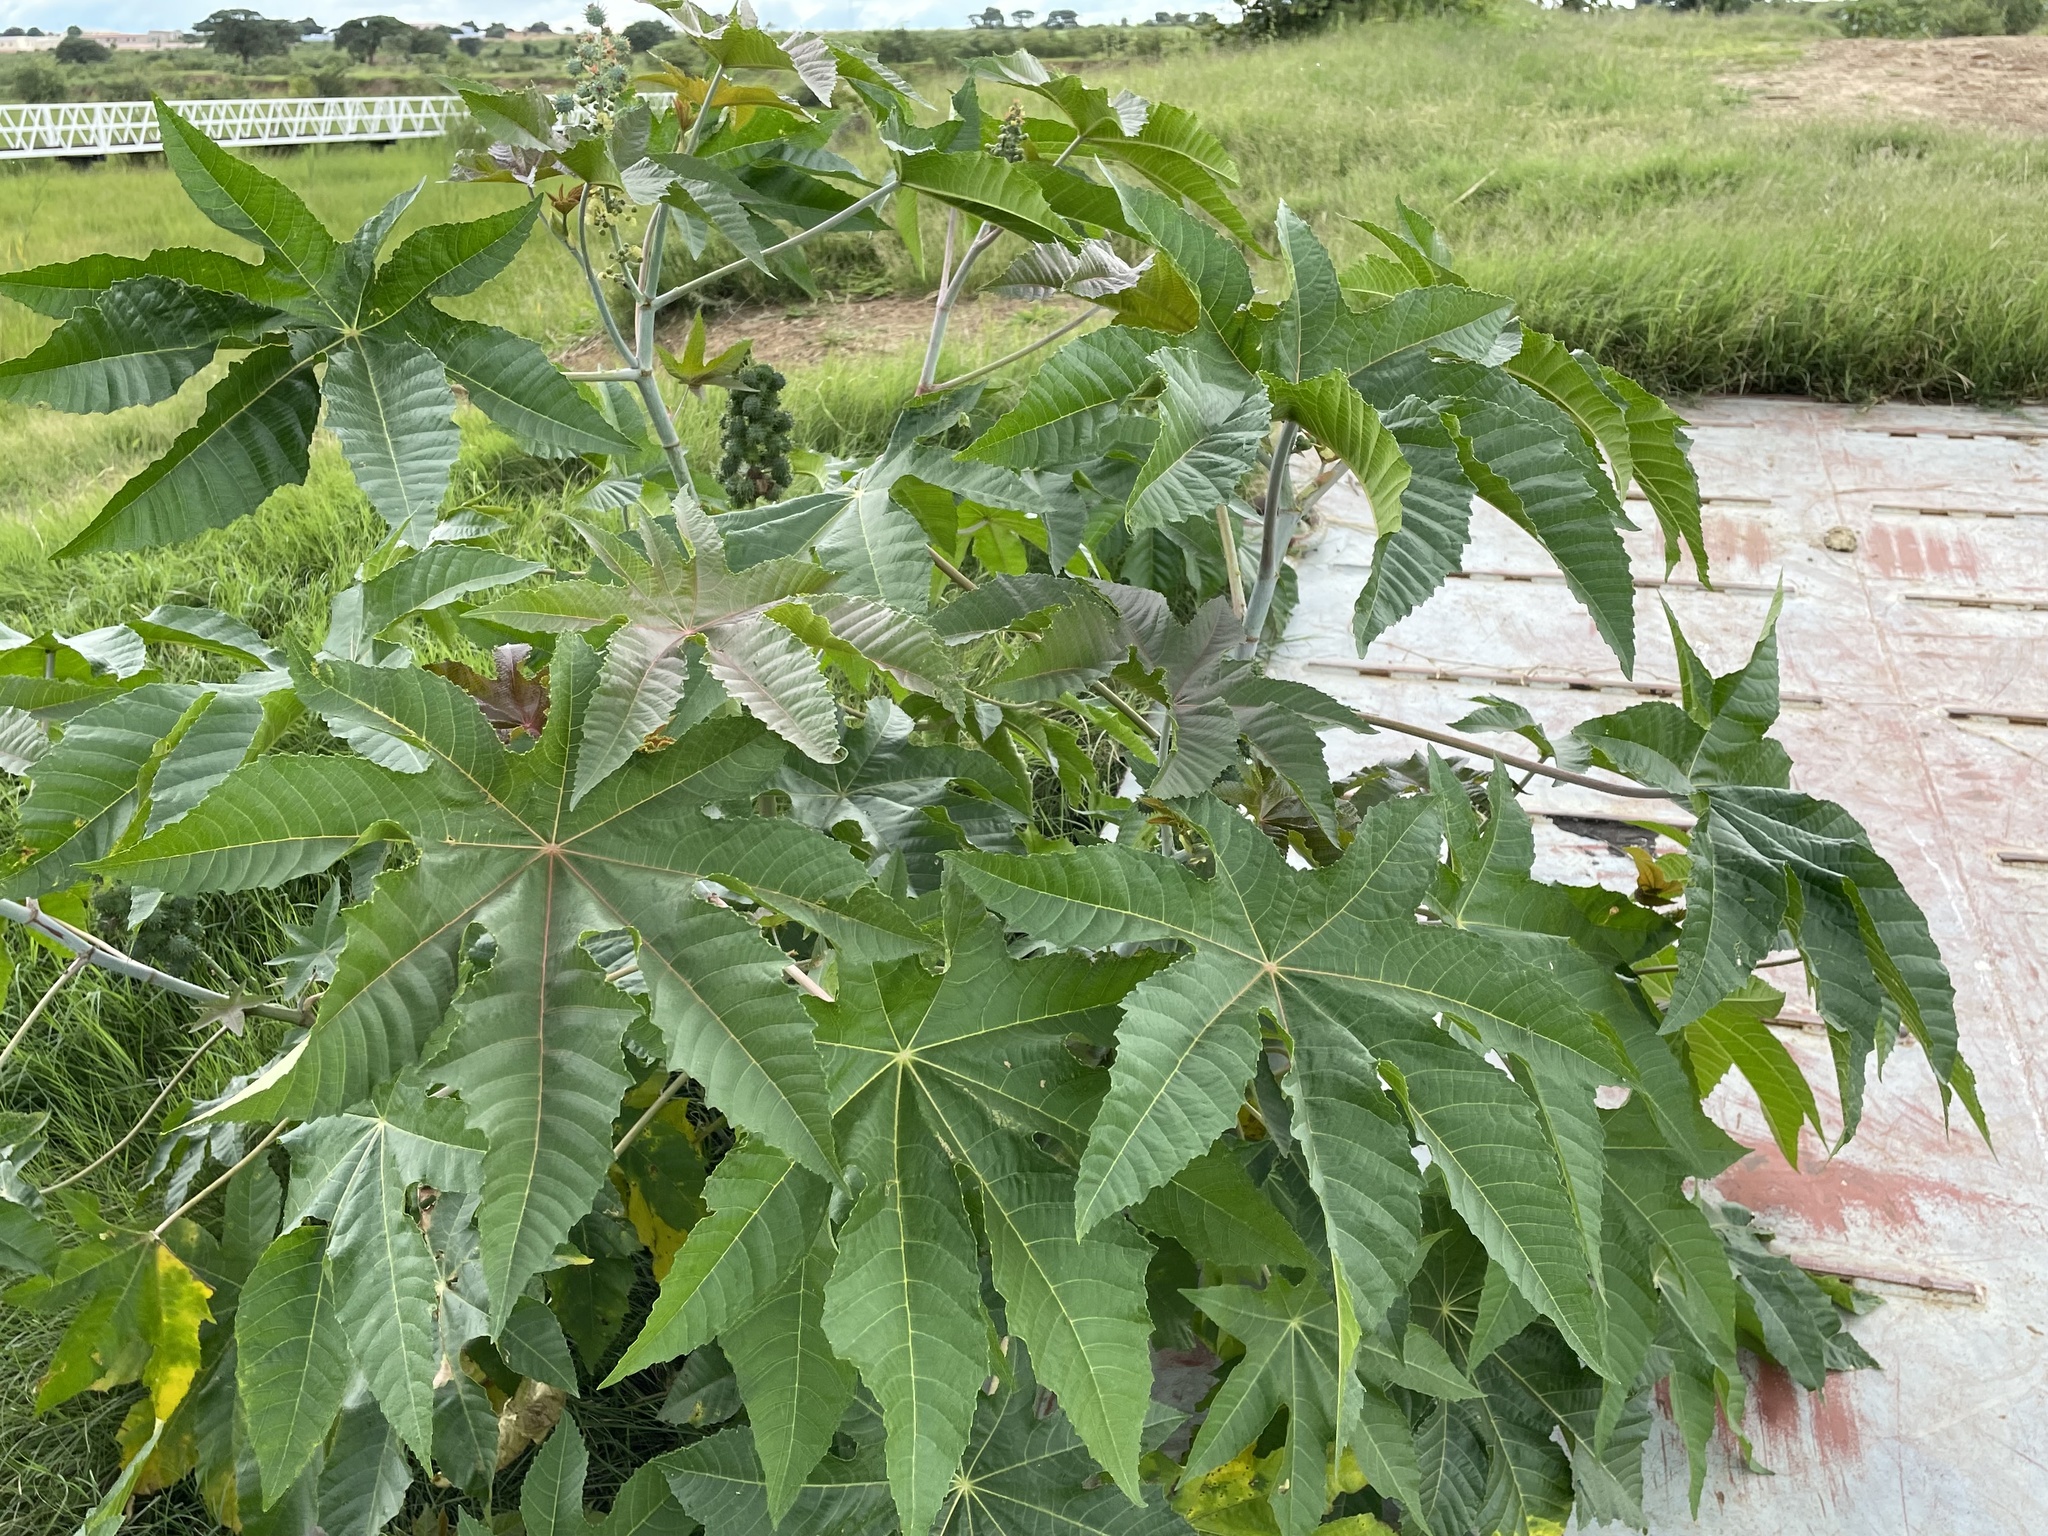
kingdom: Plantae
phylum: Tracheophyta
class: Magnoliopsida
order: Malpighiales
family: Euphorbiaceae
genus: Ricinus
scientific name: Ricinus communis
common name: Castor-oil-plant
